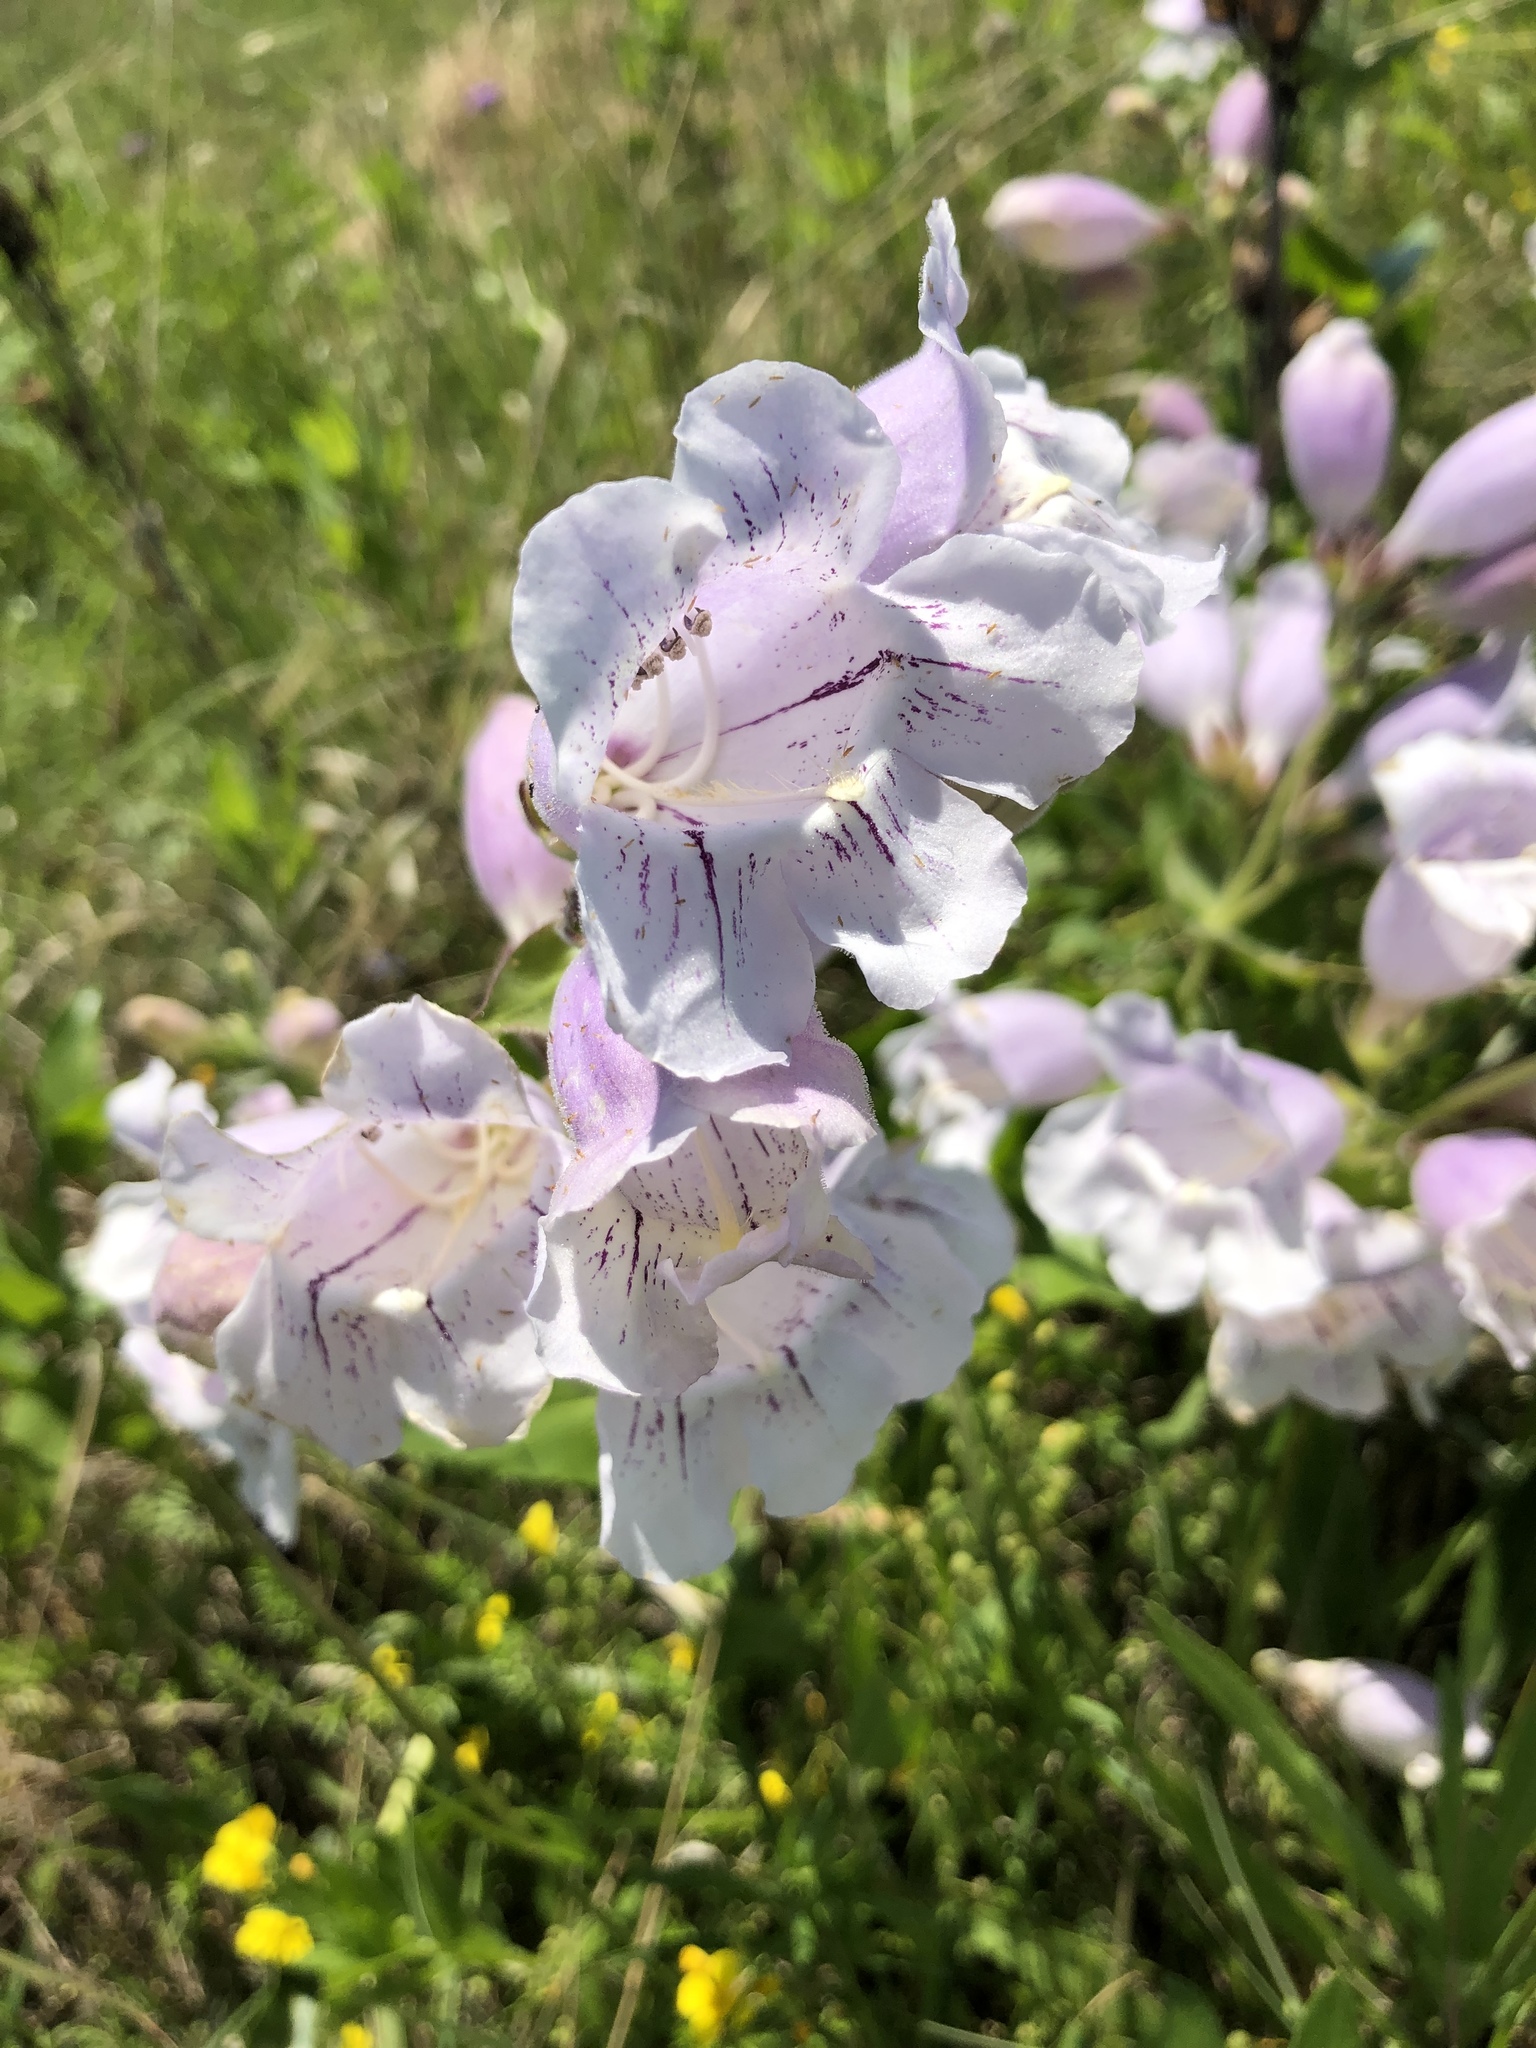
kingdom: Plantae
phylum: Tracheophyta
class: Magnoliopsida
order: Lamiales
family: Plantaginaceae
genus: Penstemon
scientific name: Penstemon cobaea
